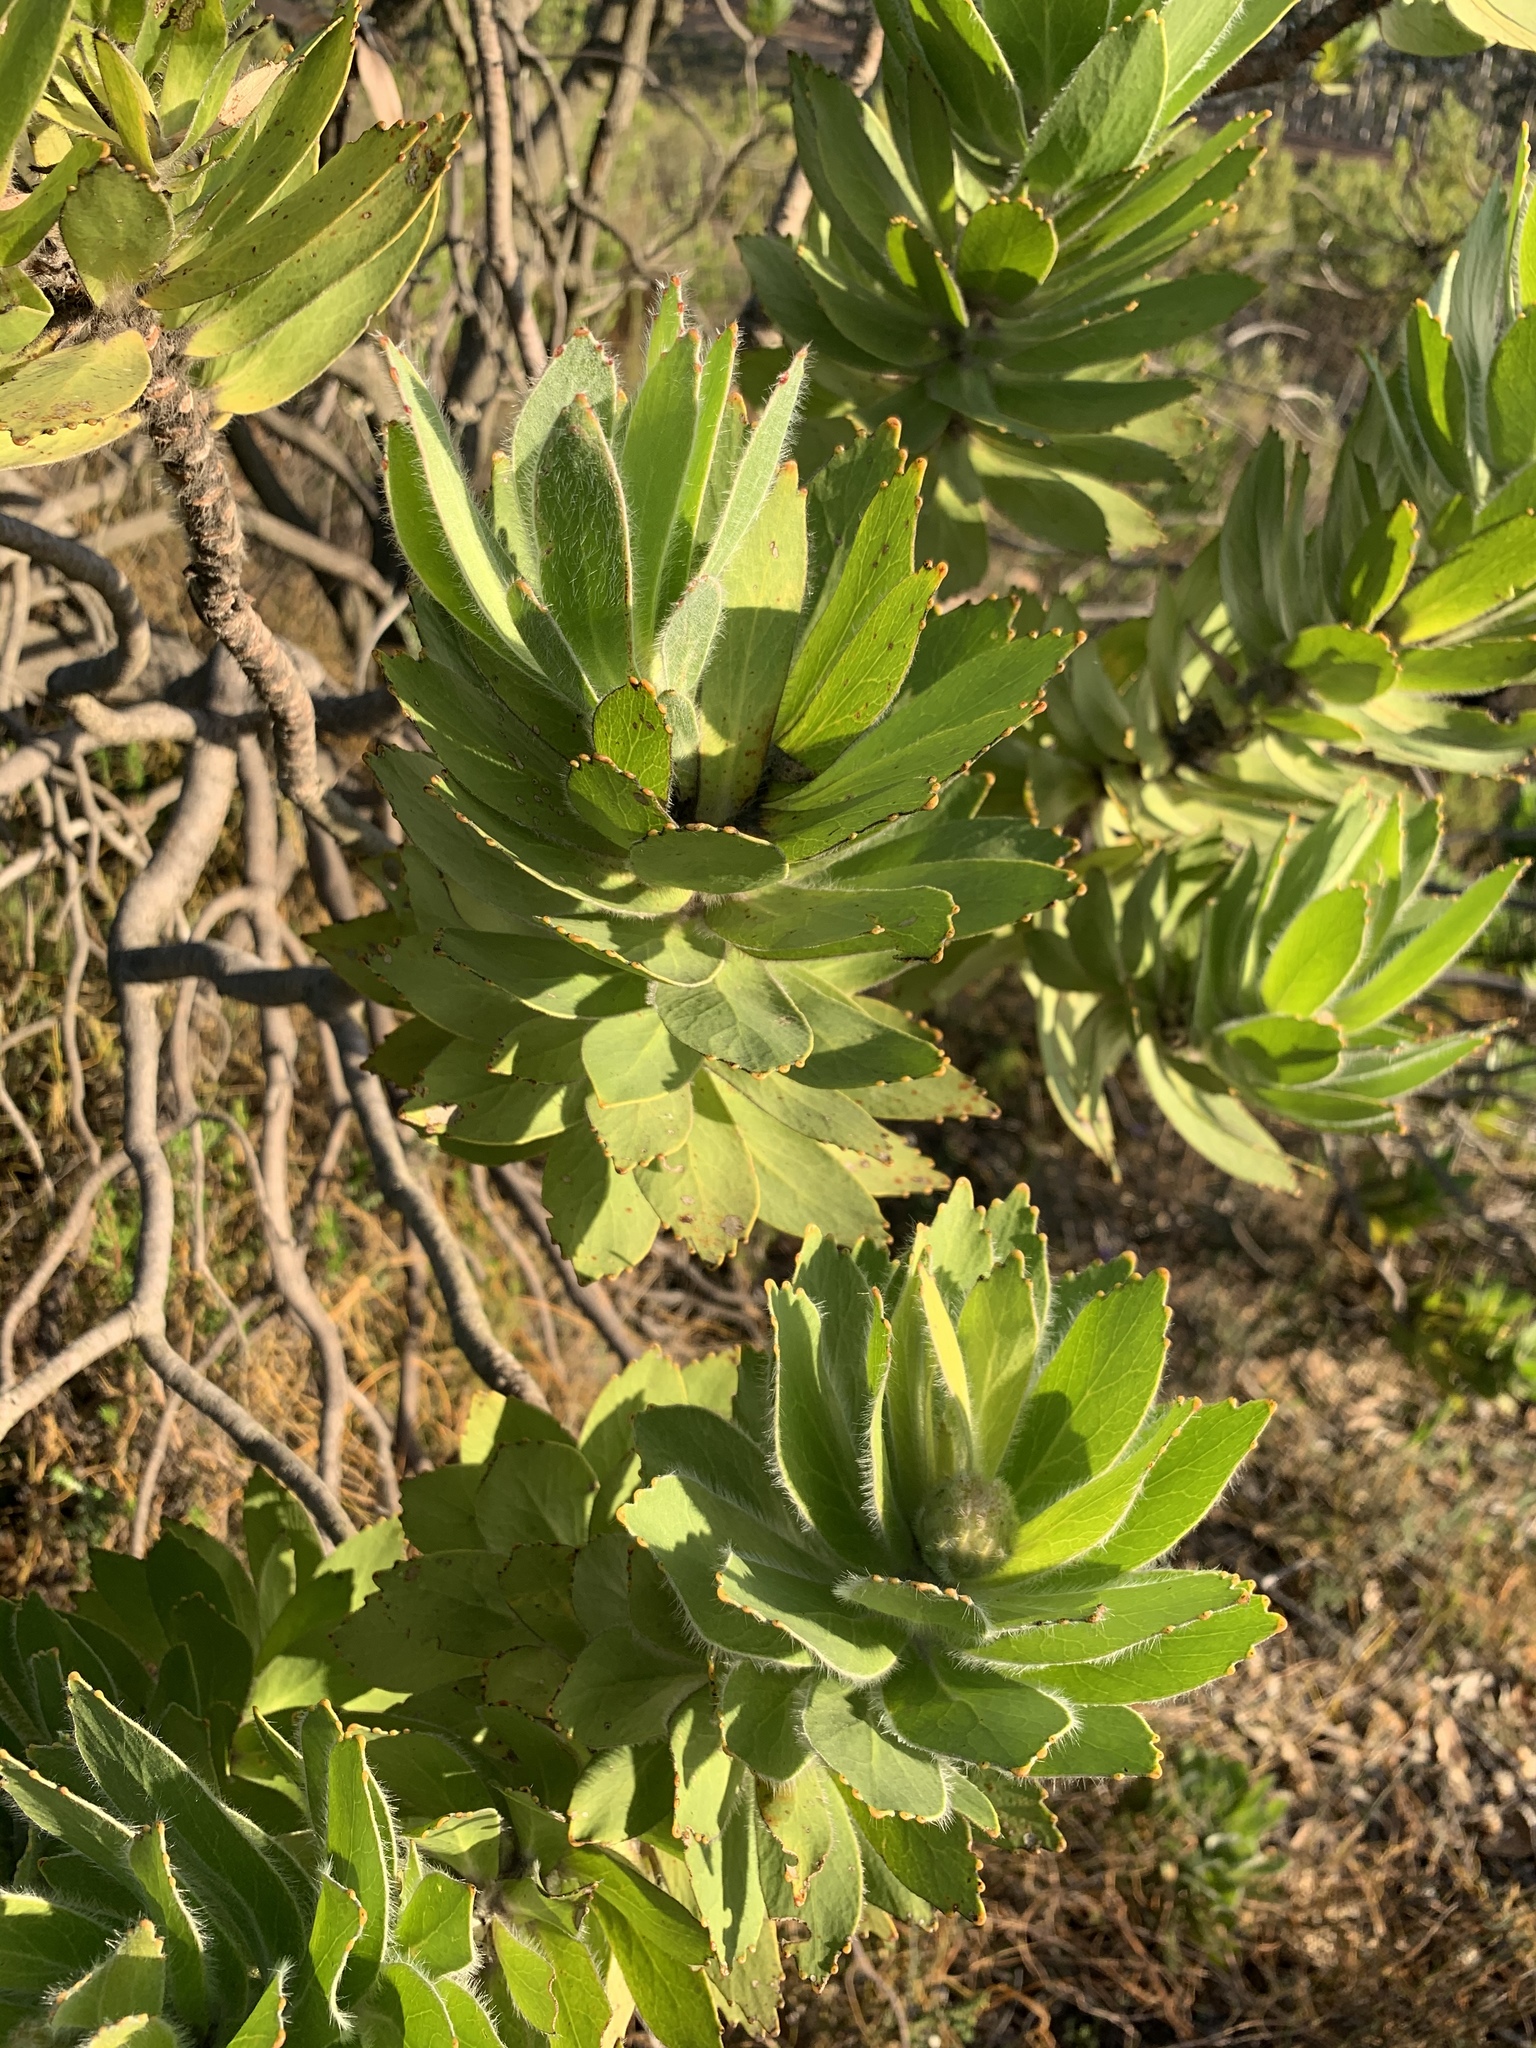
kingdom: Plantae
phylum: Tracheophyta
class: Magnoliopsida
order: Proteales
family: Proteaceae
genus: Leucospermum
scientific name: Leucospermum conocarpodendron
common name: Tree pincushion
